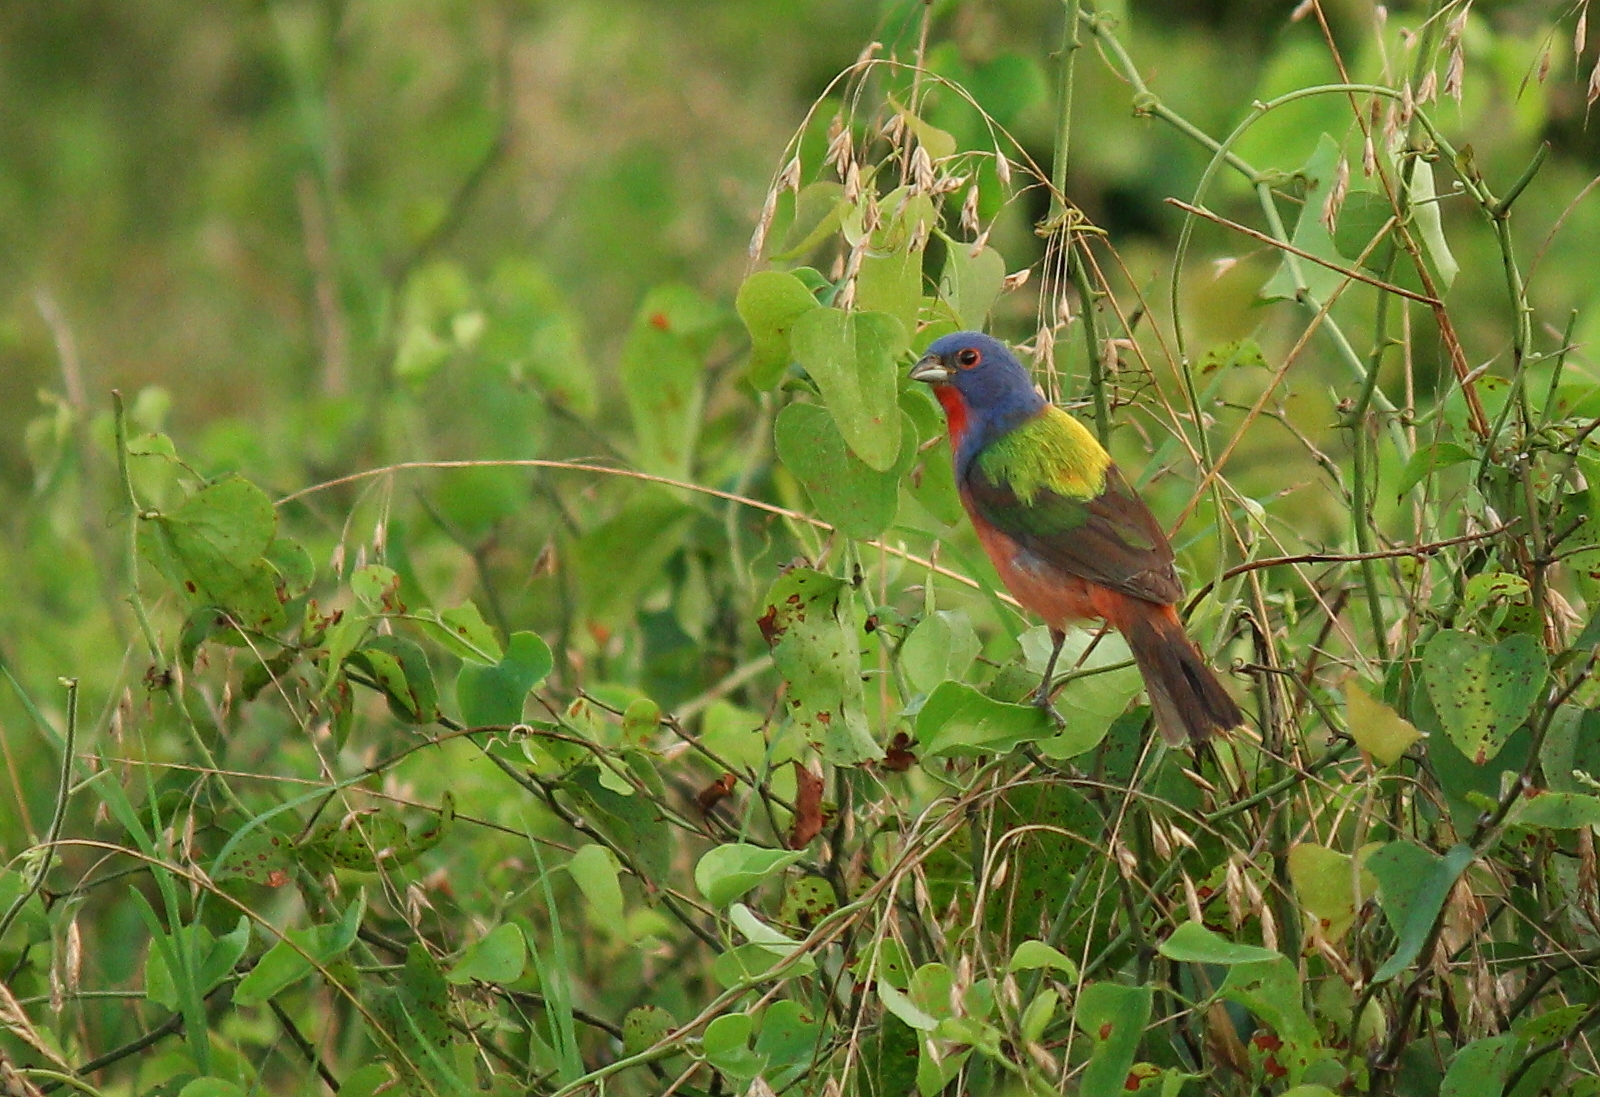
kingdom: Animalia
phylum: Chordata
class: Aves
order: Passeriformes
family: Cardinalidae
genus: Passerina
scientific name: Passerina ciris
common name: Painted bunting
